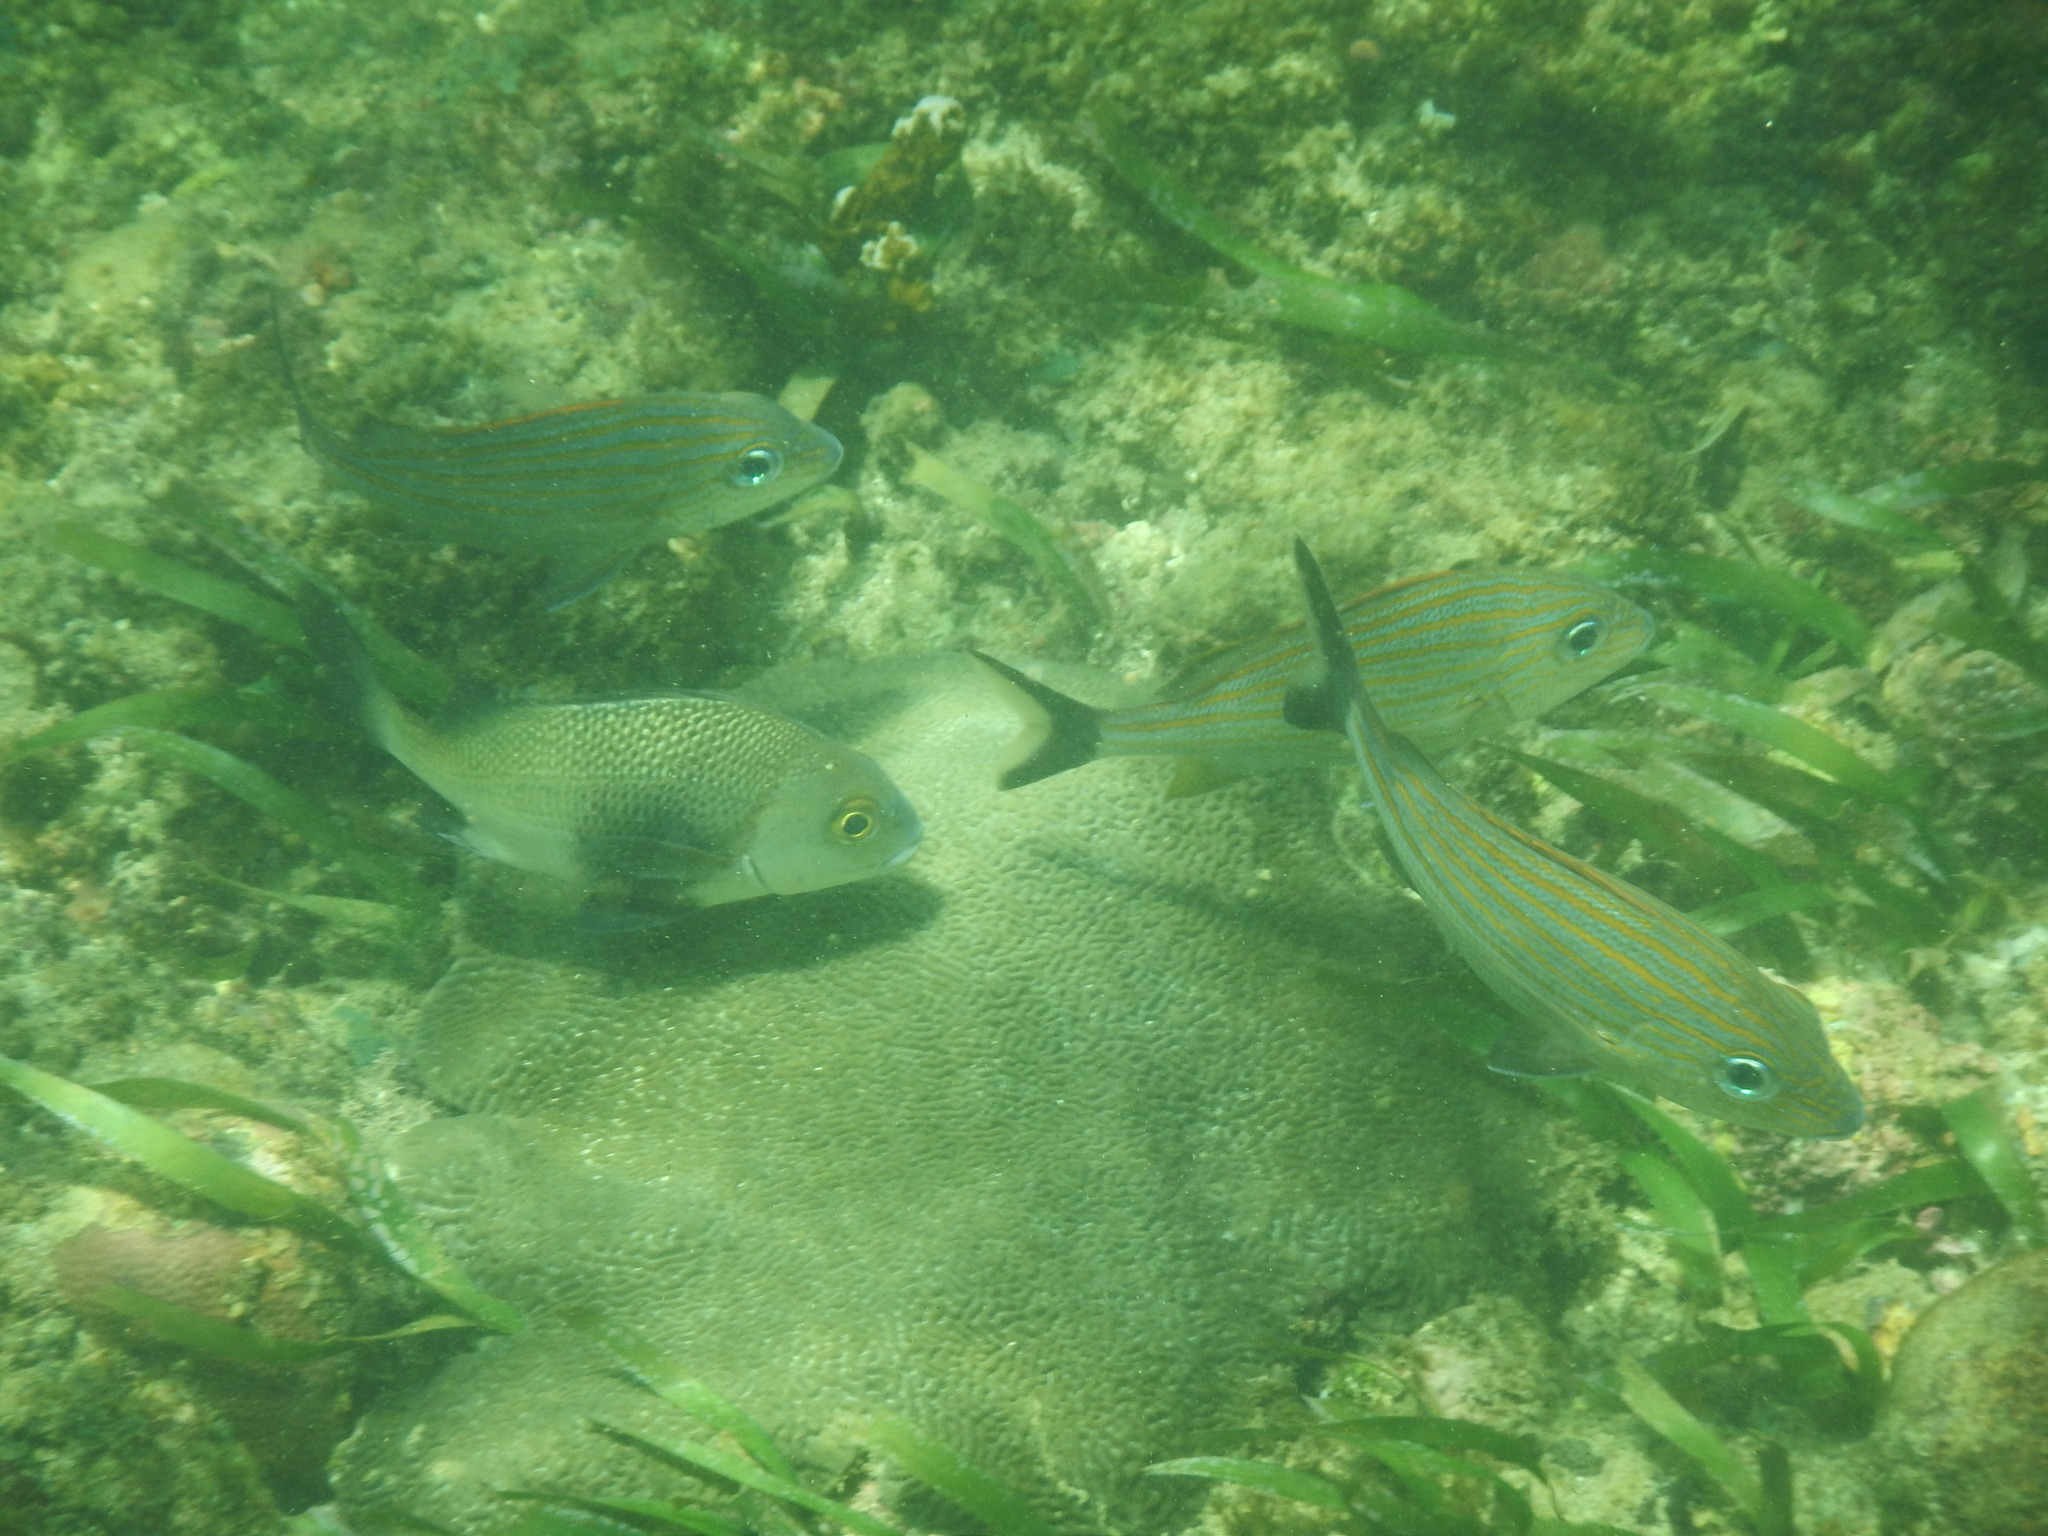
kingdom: Animalia
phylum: Chordata
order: Perciformes
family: Haemulidae
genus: Haemulon
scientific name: Haemulon carbonarium
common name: Caesar grunt
